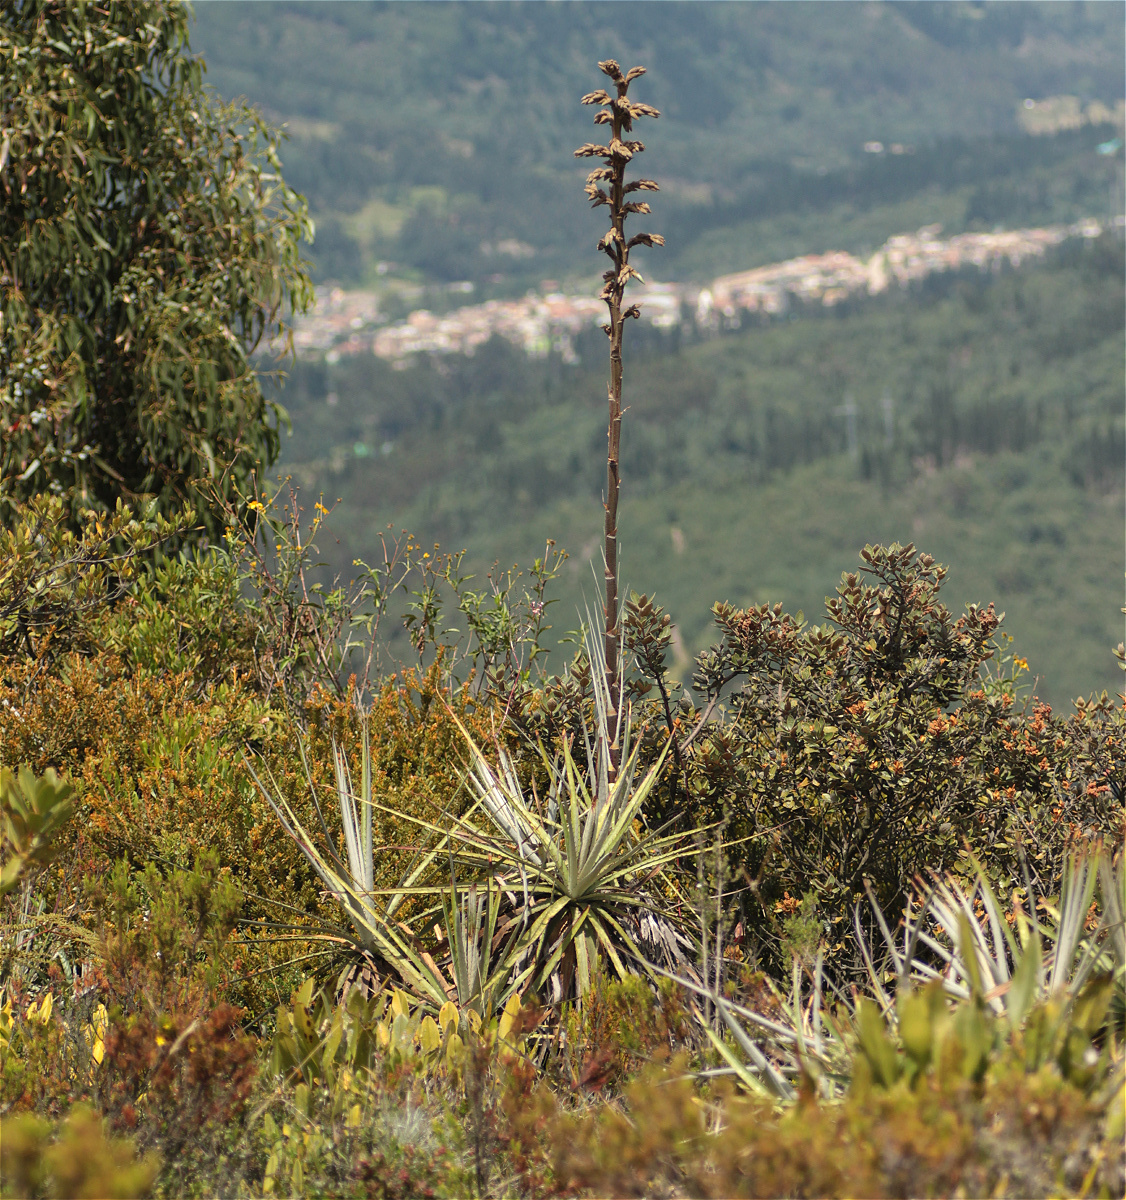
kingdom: Plantae
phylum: Tracheophyta
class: Liliopsida
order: Poales
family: Bromeliaceae
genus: Puya
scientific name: Puya bicolor
